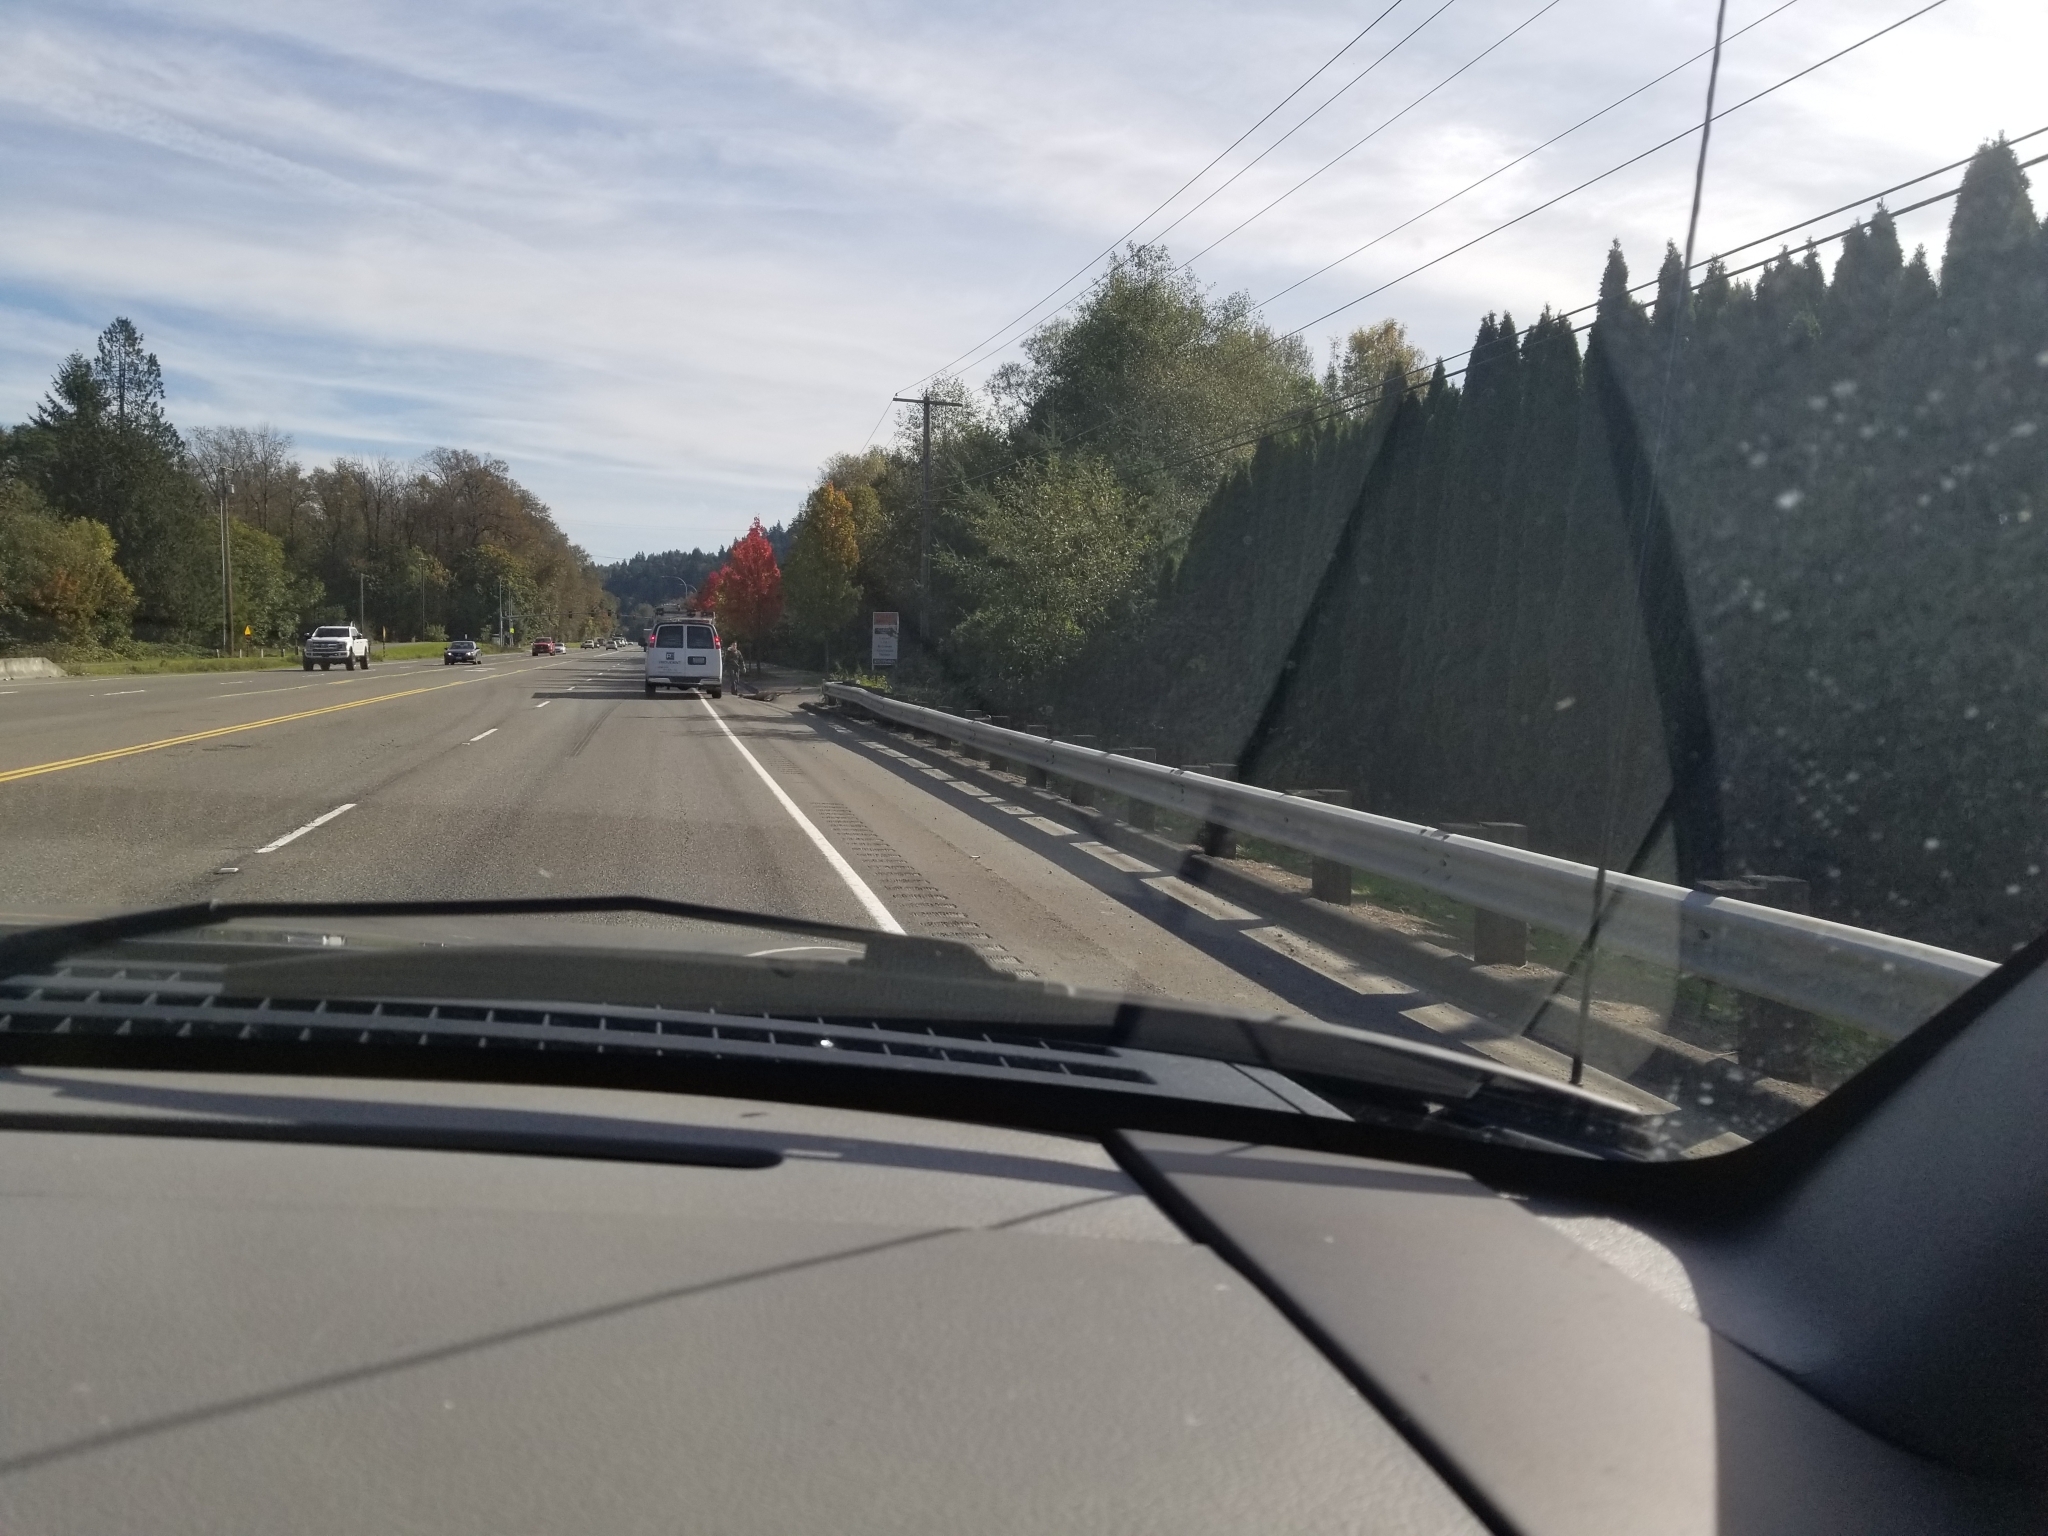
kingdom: Animalia
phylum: Chordata
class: Mammalia
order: Artiodactyla
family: Cervidae
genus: Odocoileus
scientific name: Odocoileus hemionus
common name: Mule deer
